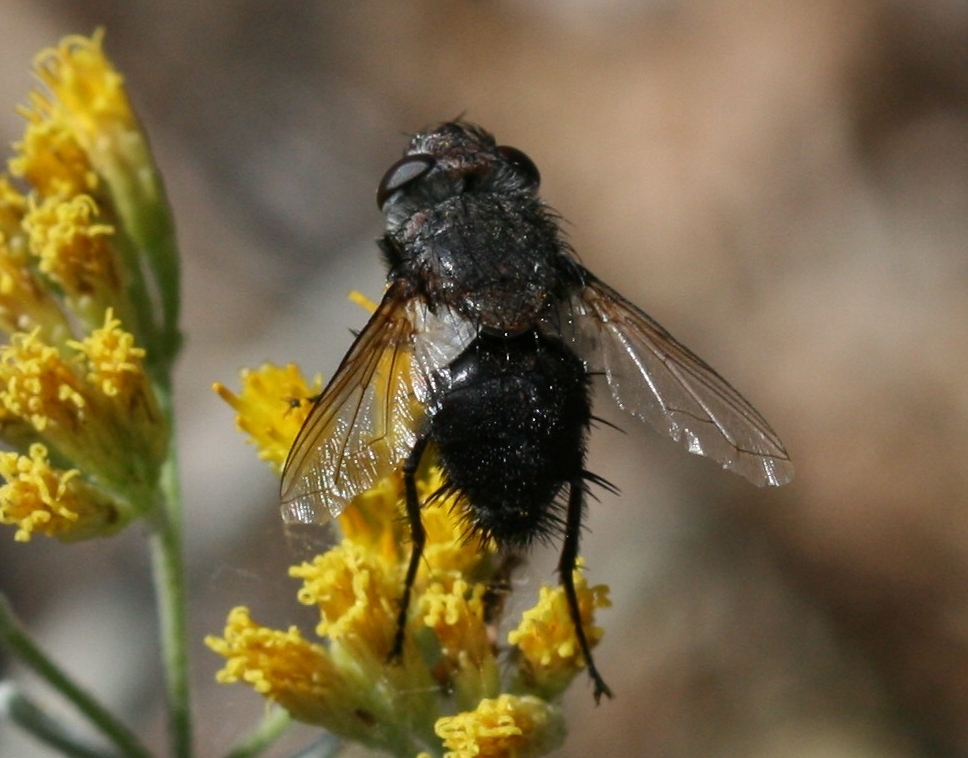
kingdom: Animalia
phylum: Arthropoda
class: Insecta
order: Diptera
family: Tachinidae
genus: Pseudogonia
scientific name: Pseudogonia fasciata
